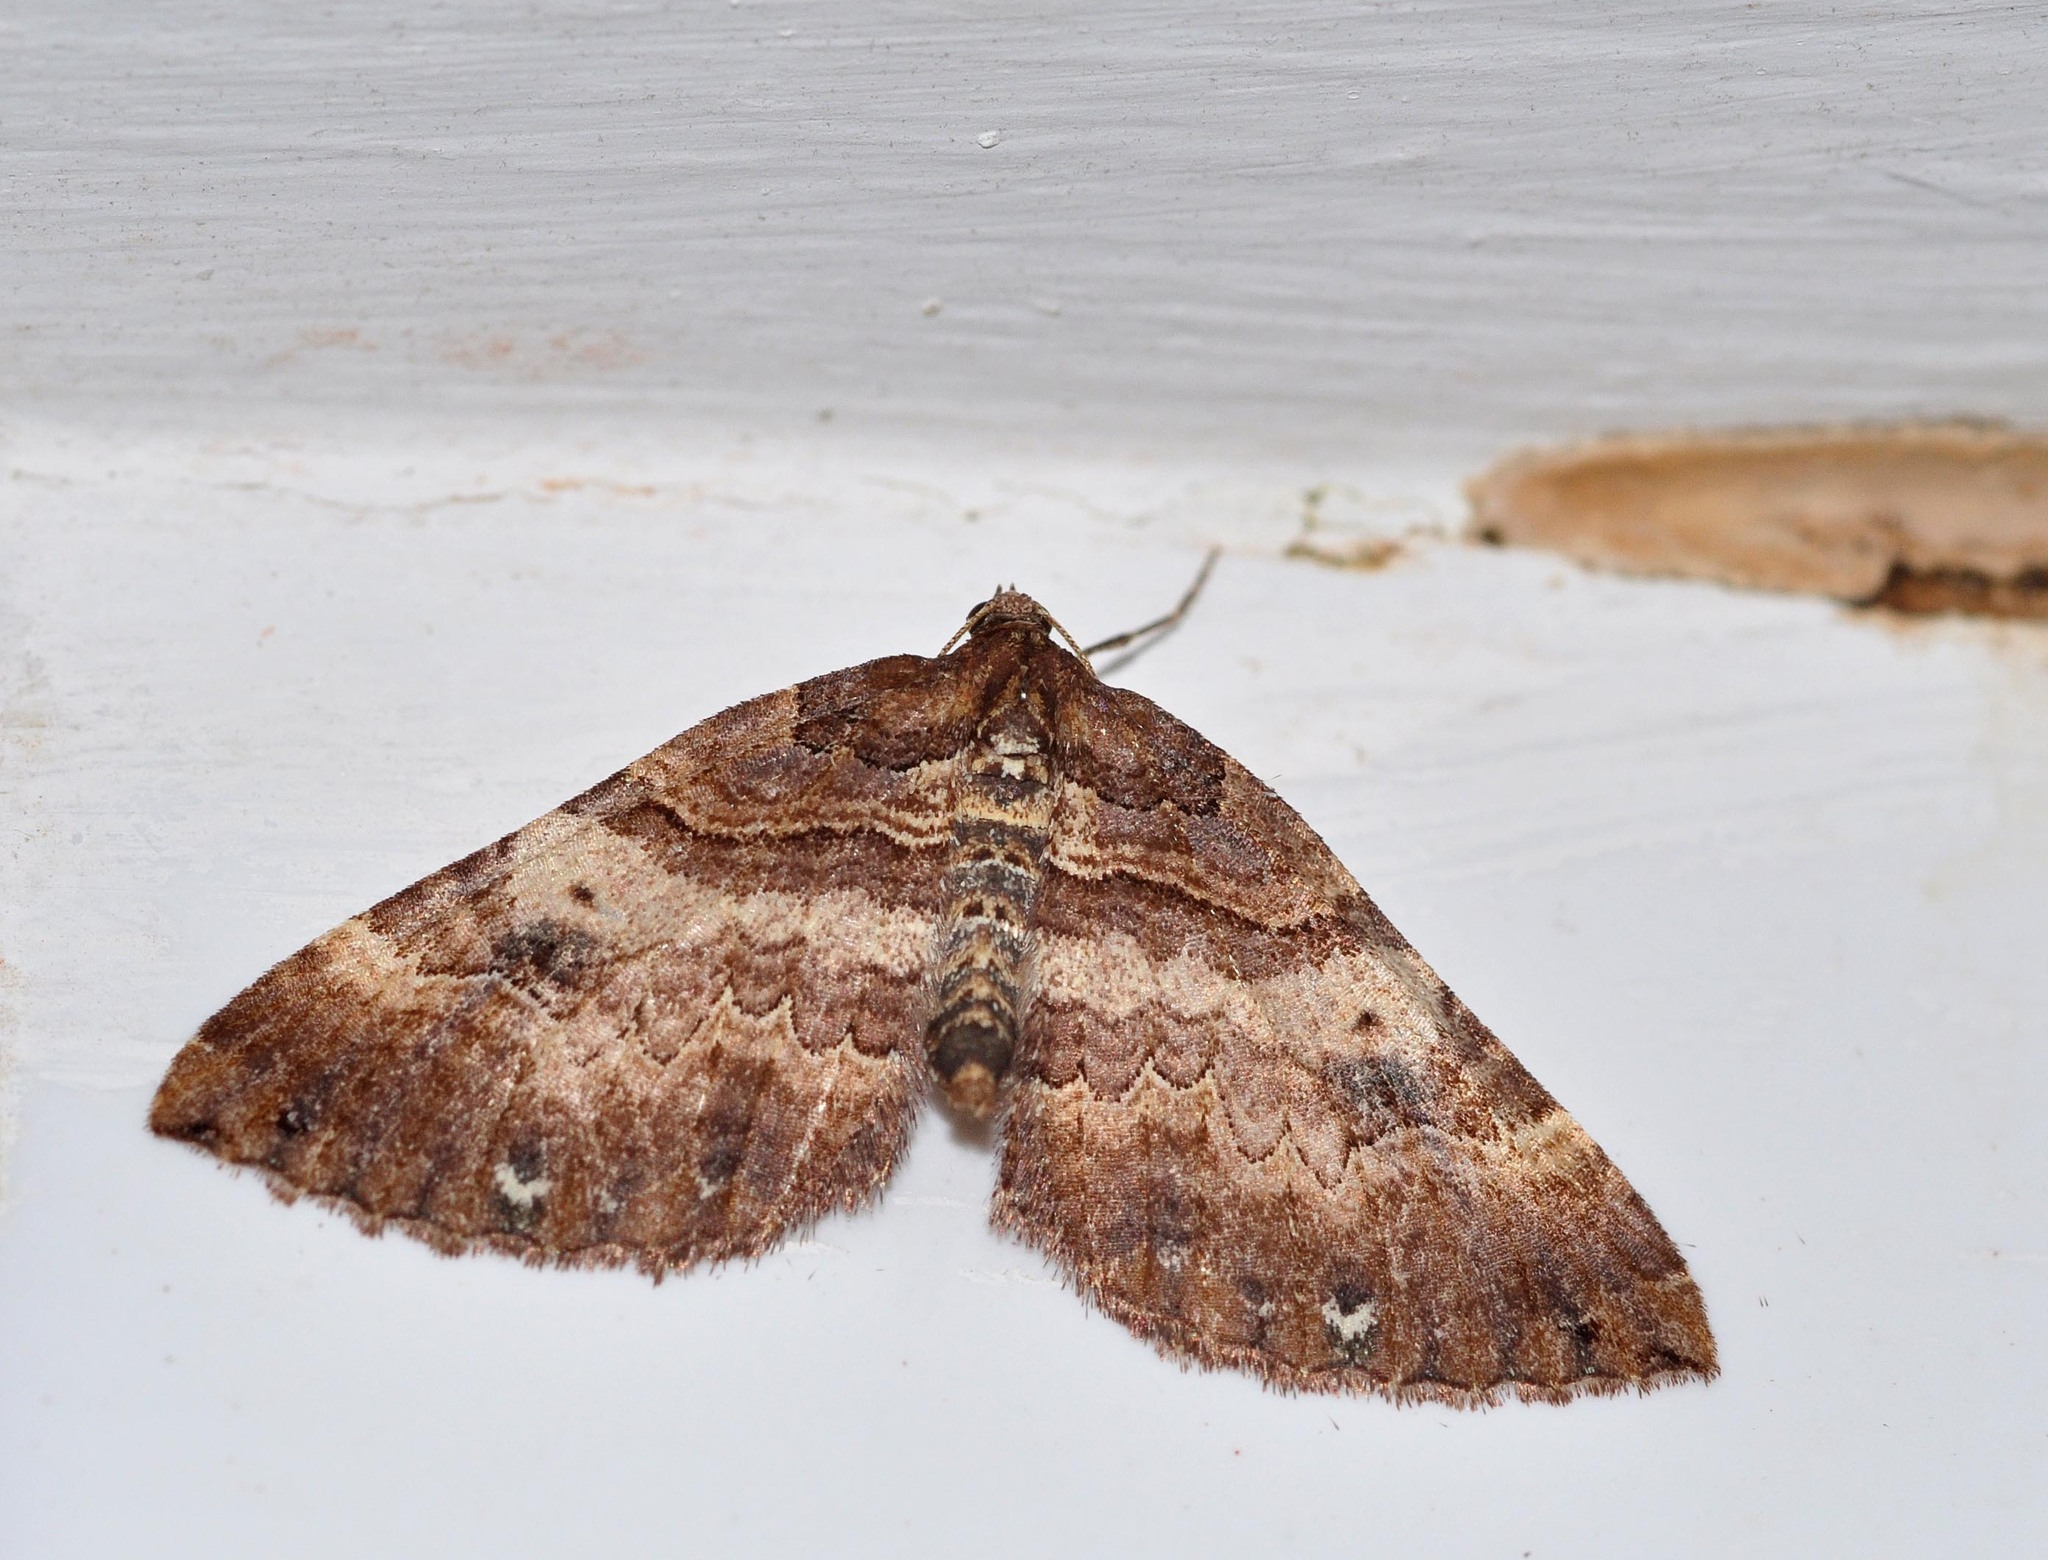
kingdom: Animalia
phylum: Arthropoda
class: Insecta
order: Lepidoptera
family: Geometridae
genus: Anticlea
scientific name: Anticlea badiata
